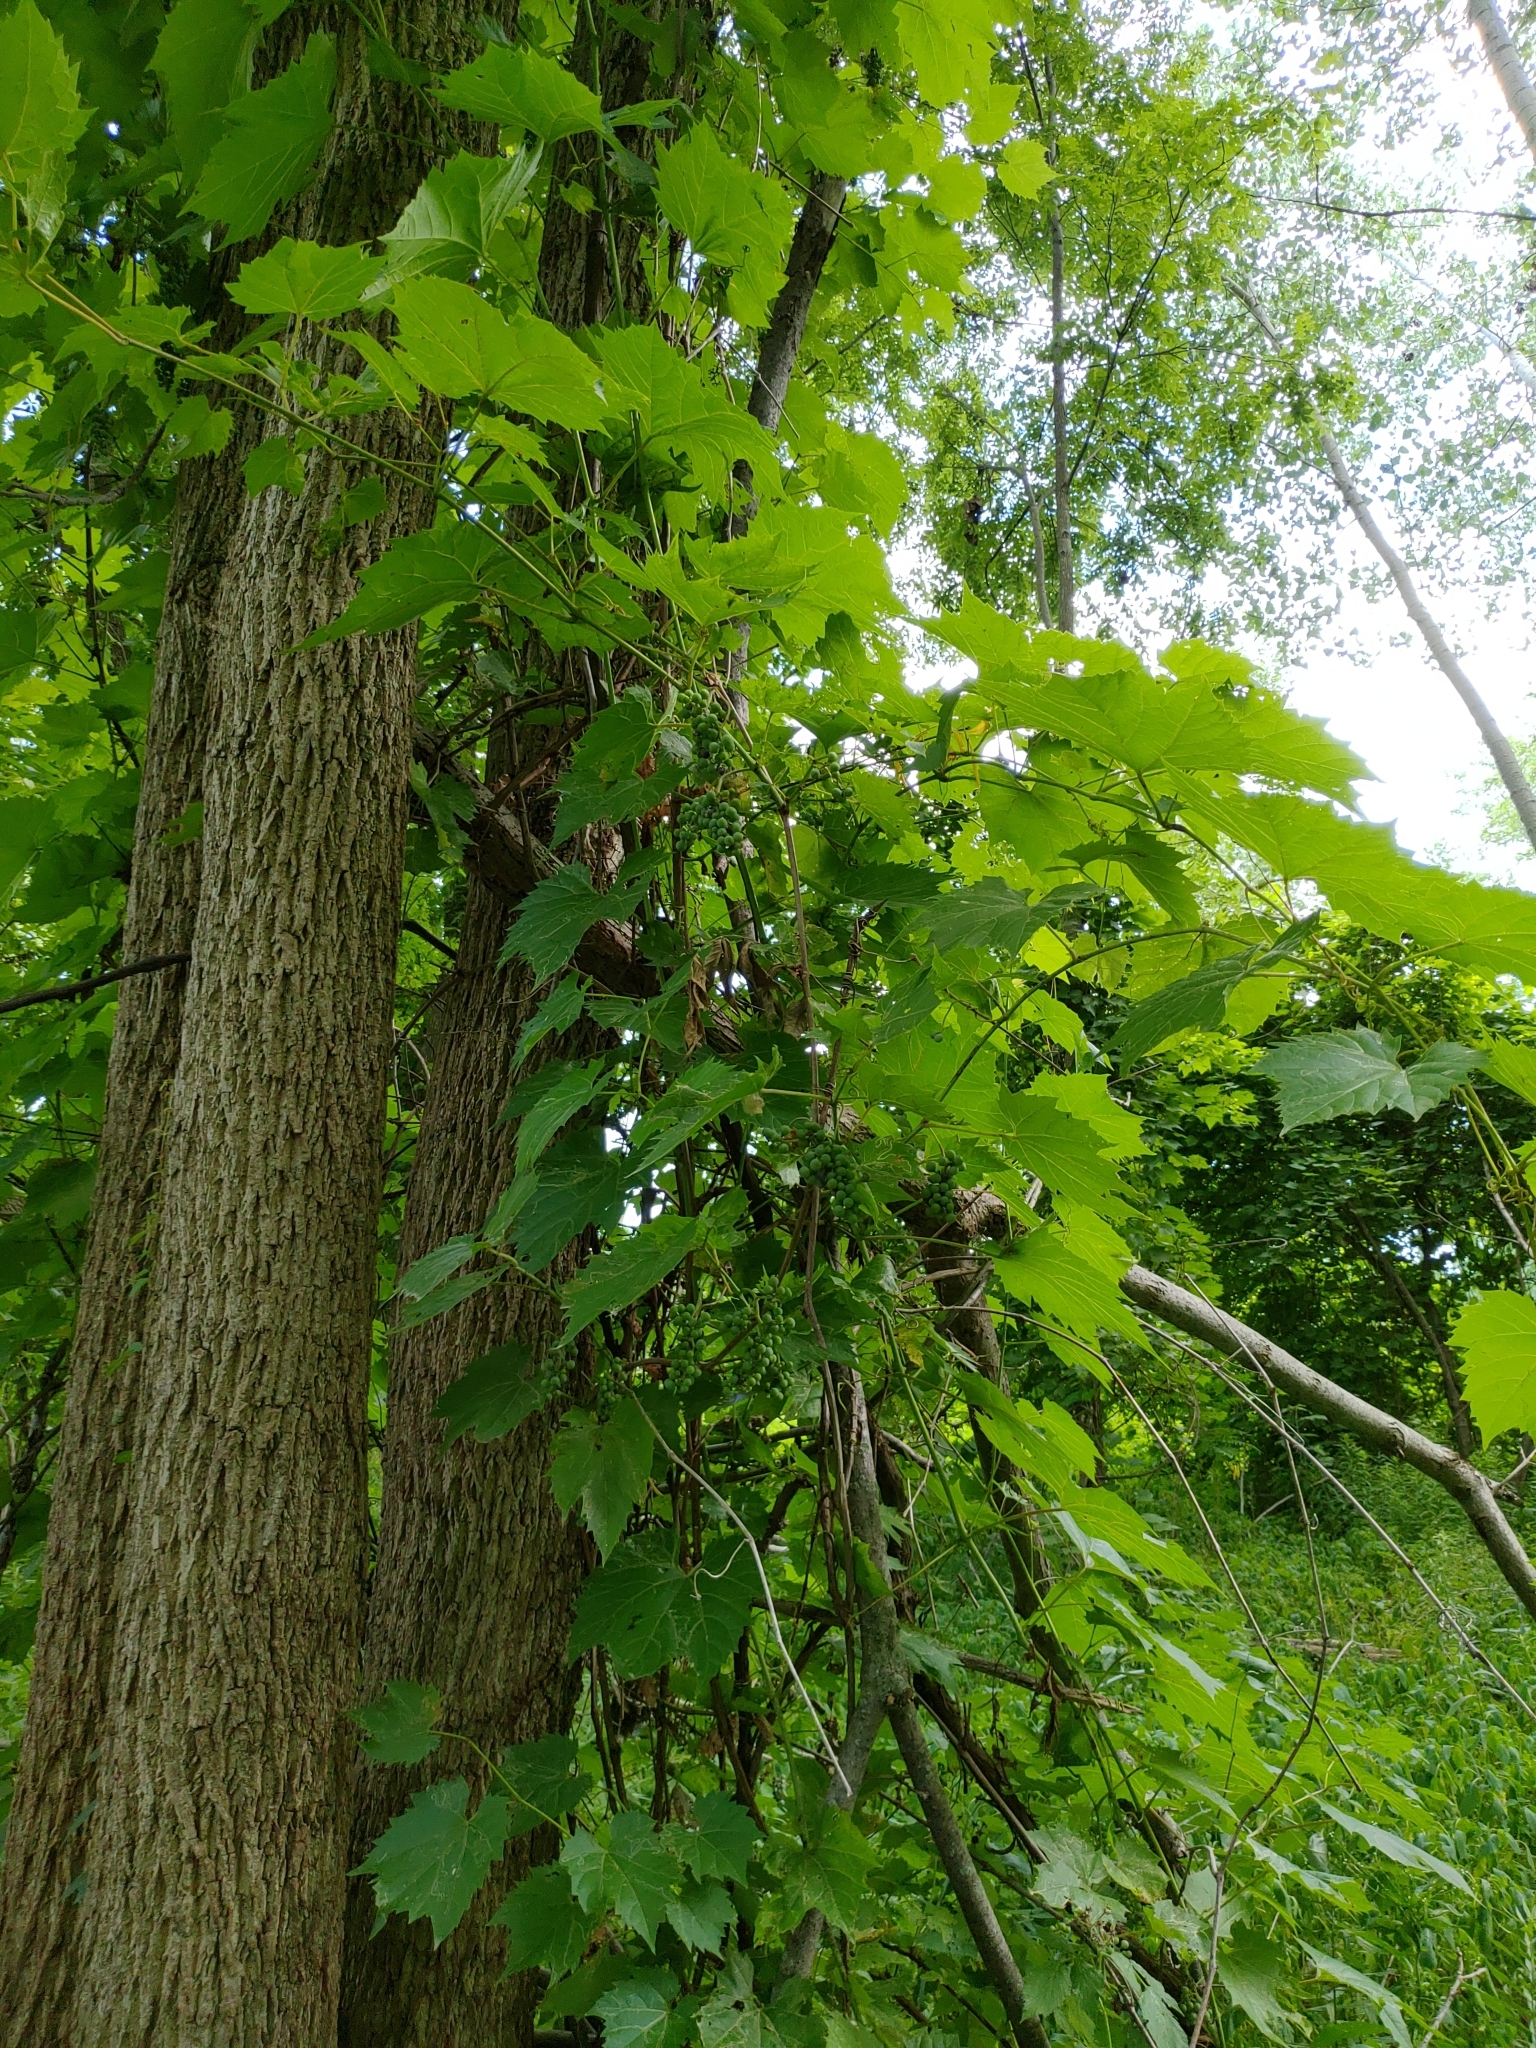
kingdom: Plantae
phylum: Tracheophyta
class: Magnoliopsida
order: Vitales
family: Vitaceae
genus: Vitis
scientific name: Vitis riparia
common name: Frost grape
